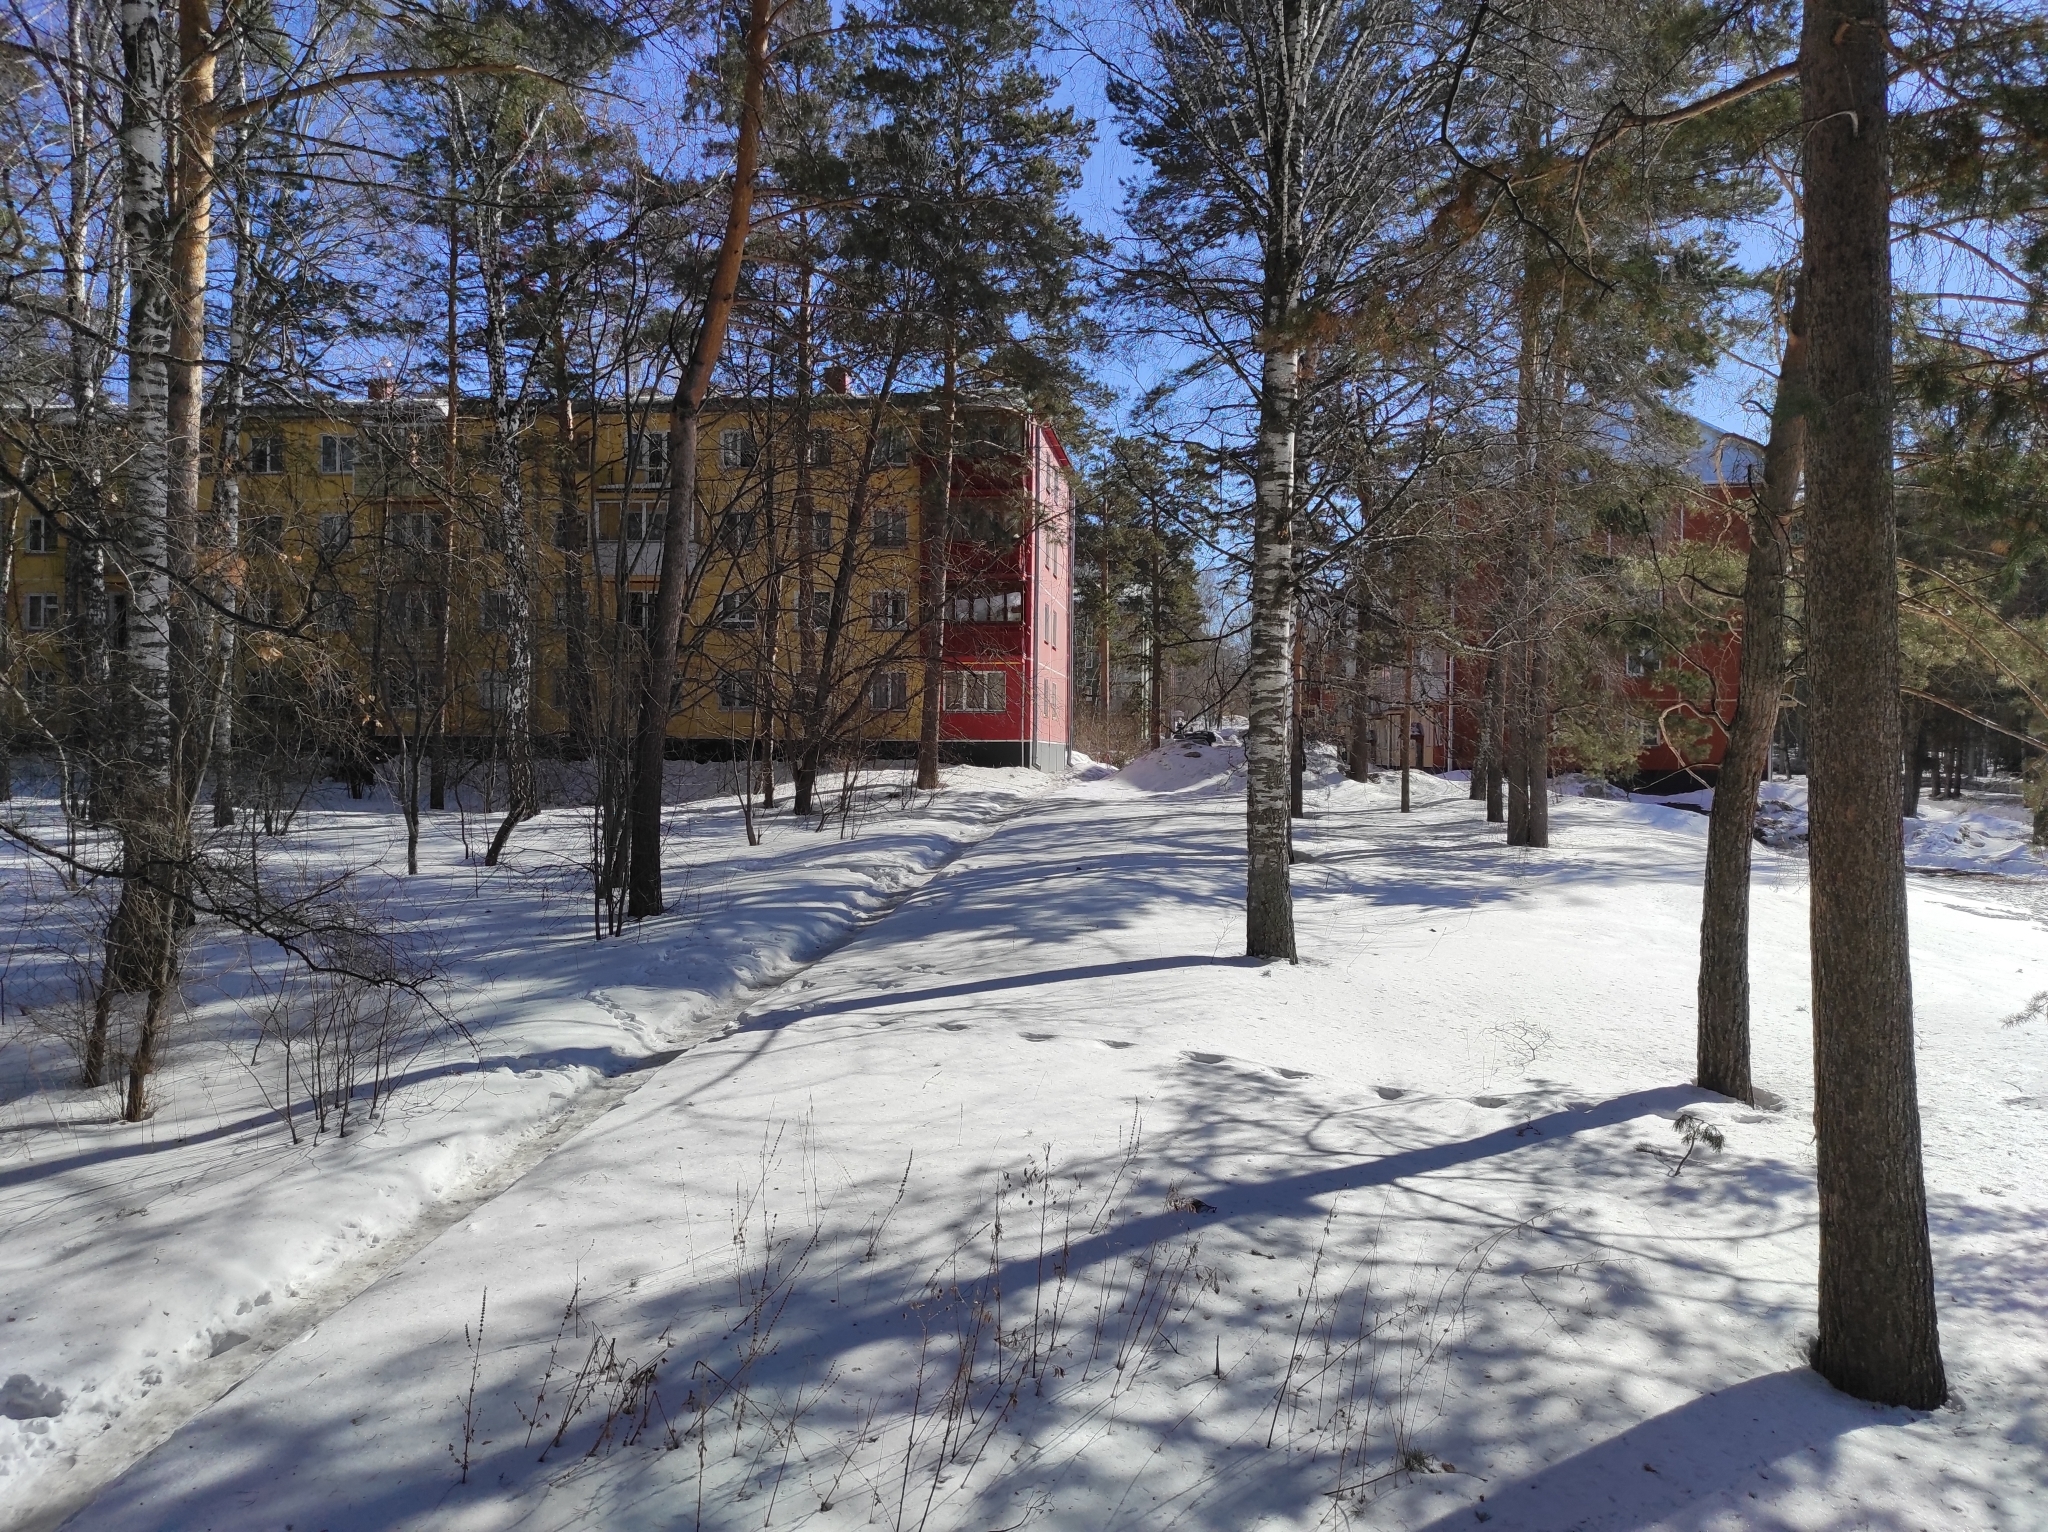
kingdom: Plantae
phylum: Tracheophyta
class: Pinopsida
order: Pinales
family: Pinaceae
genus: Pinus
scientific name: Pinus sylvestris
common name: Scots pine
